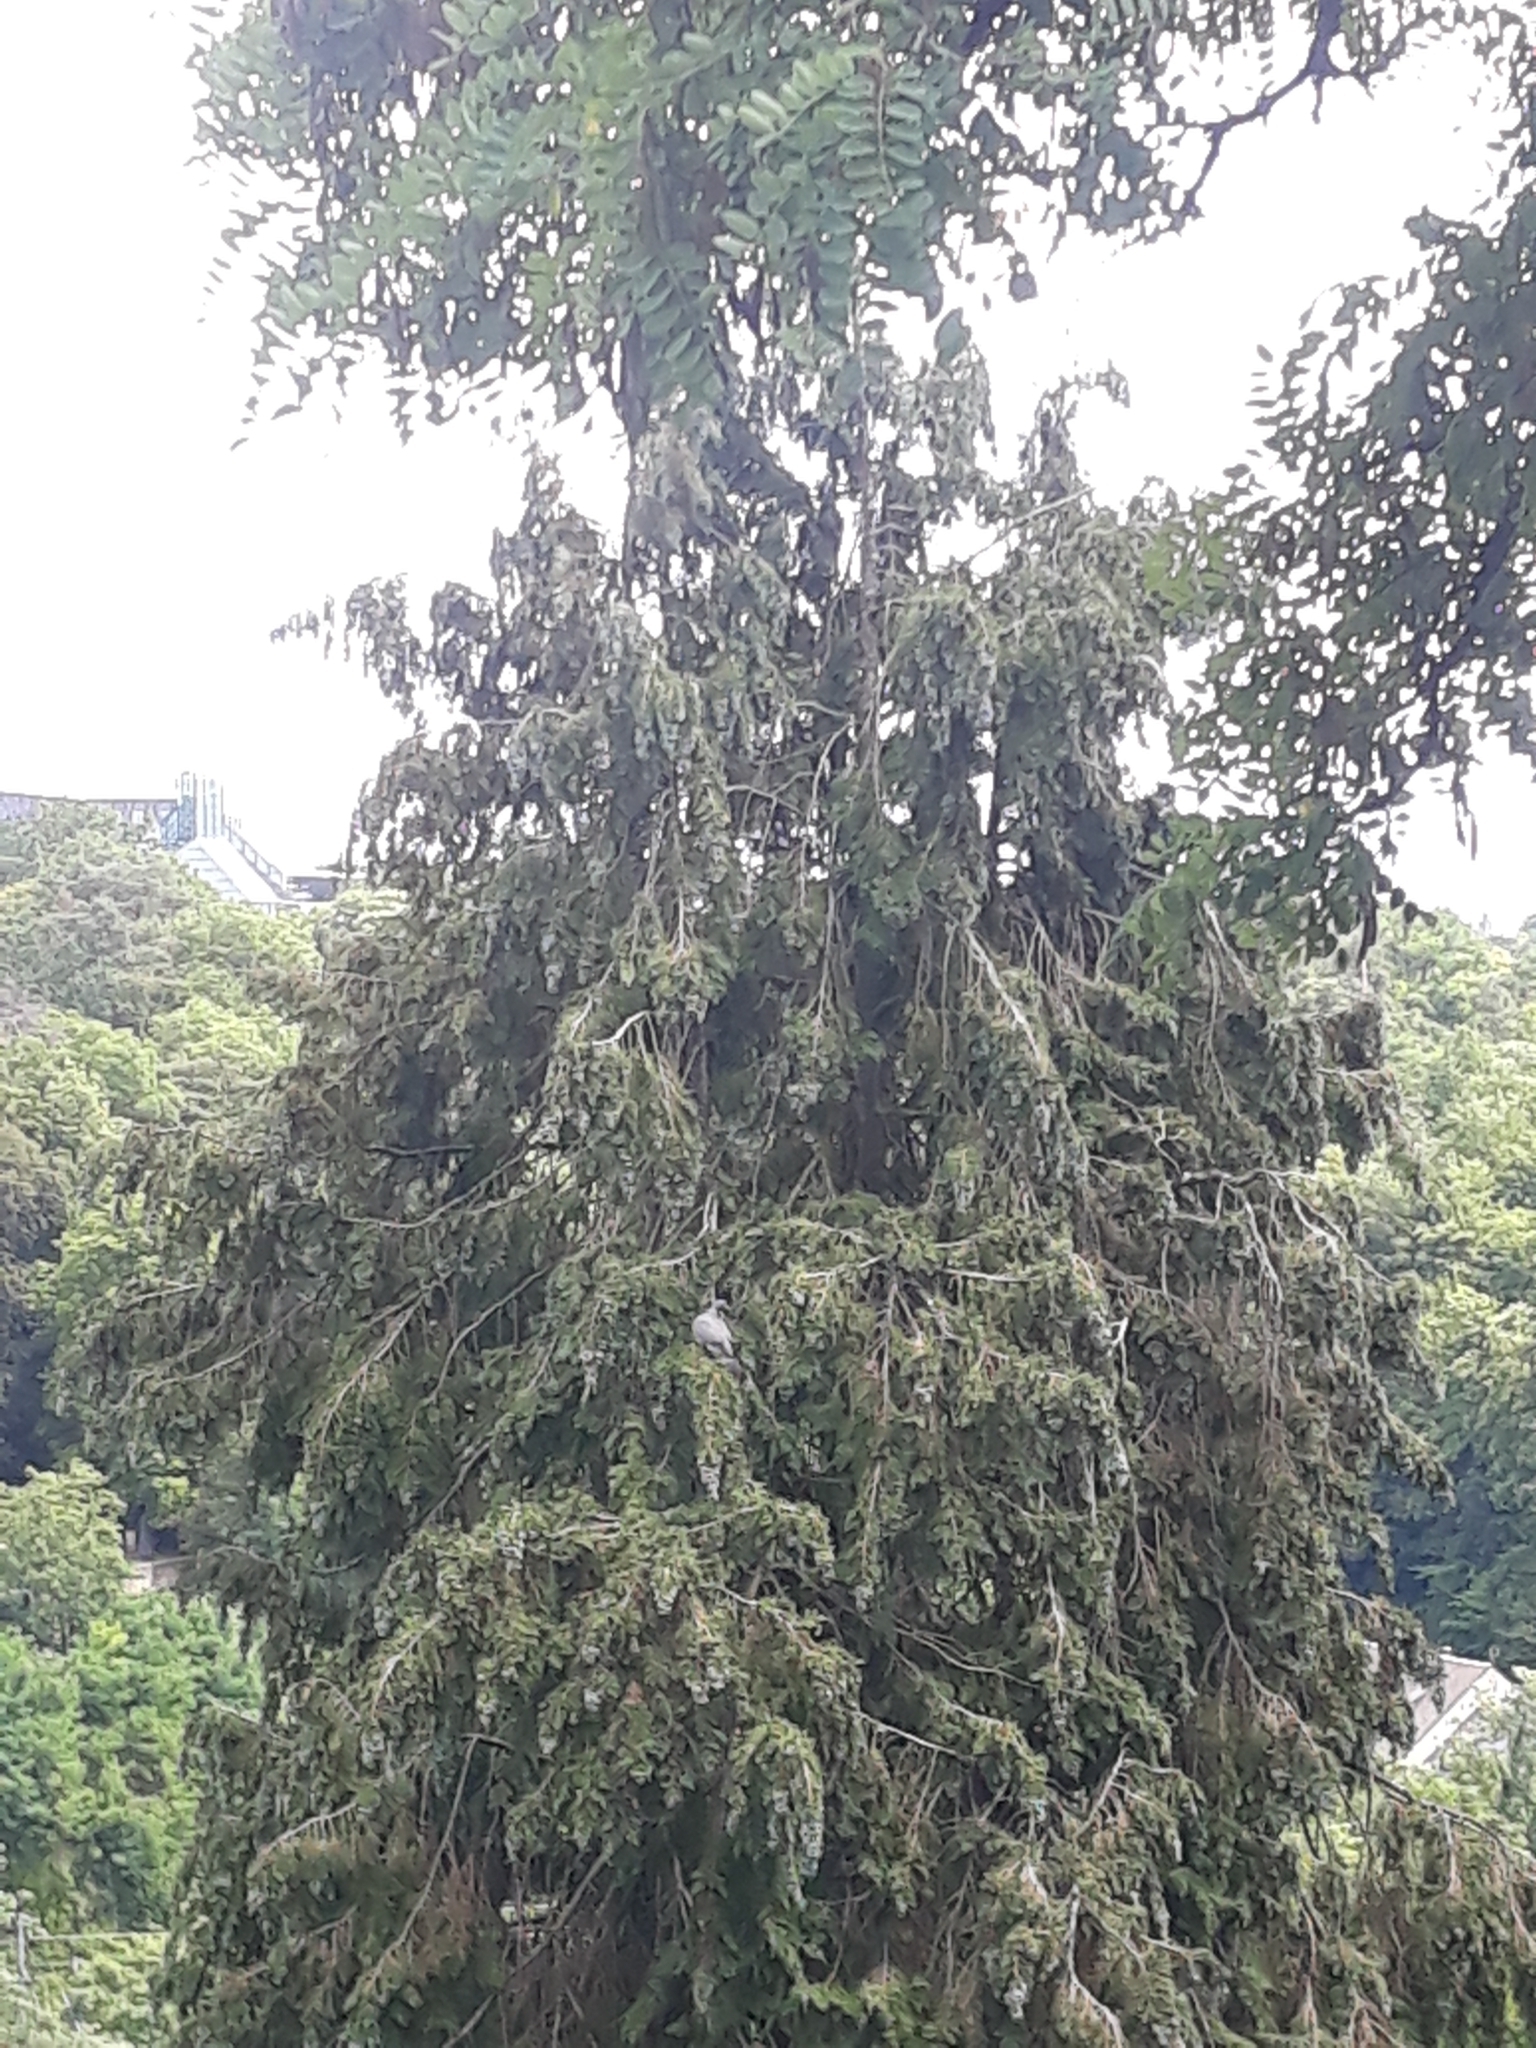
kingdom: Animalia
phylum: Chordata
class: Aves
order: Columbiformes
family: Columbidae
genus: Columba
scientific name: Columba palumbus
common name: Common wood pigeon
